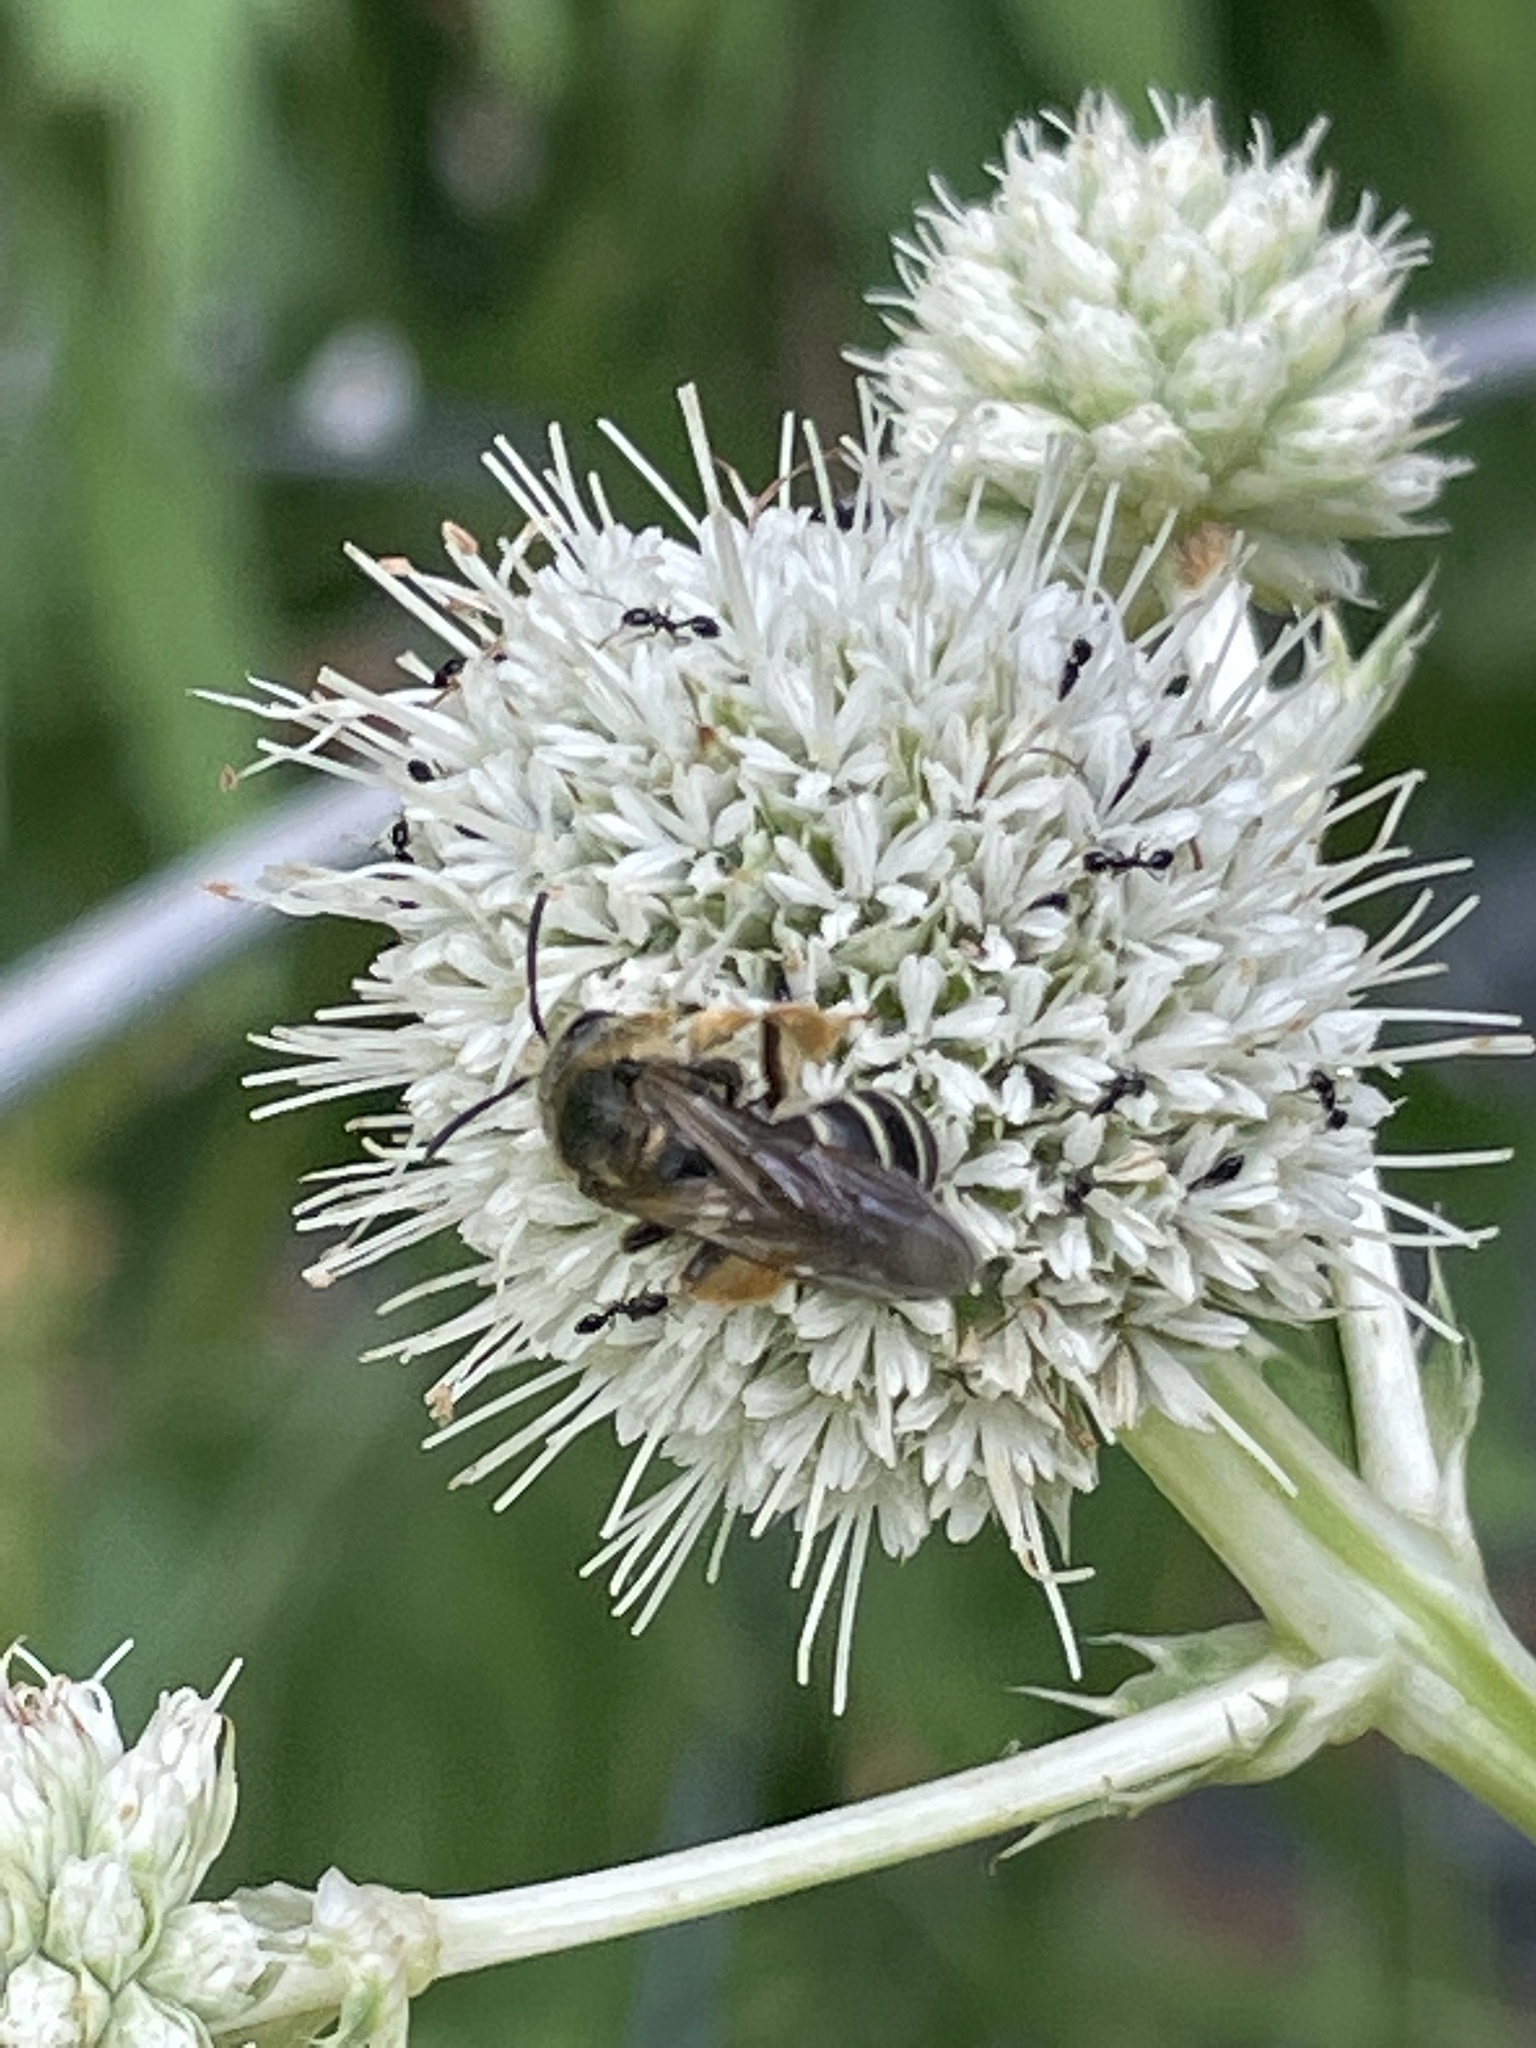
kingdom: Animalia
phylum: Arthropoda
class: Insecta
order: Hymenoptera
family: Halictidae
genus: Halictus
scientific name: Halictus rubicundus
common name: Orange-legged furrow bee
